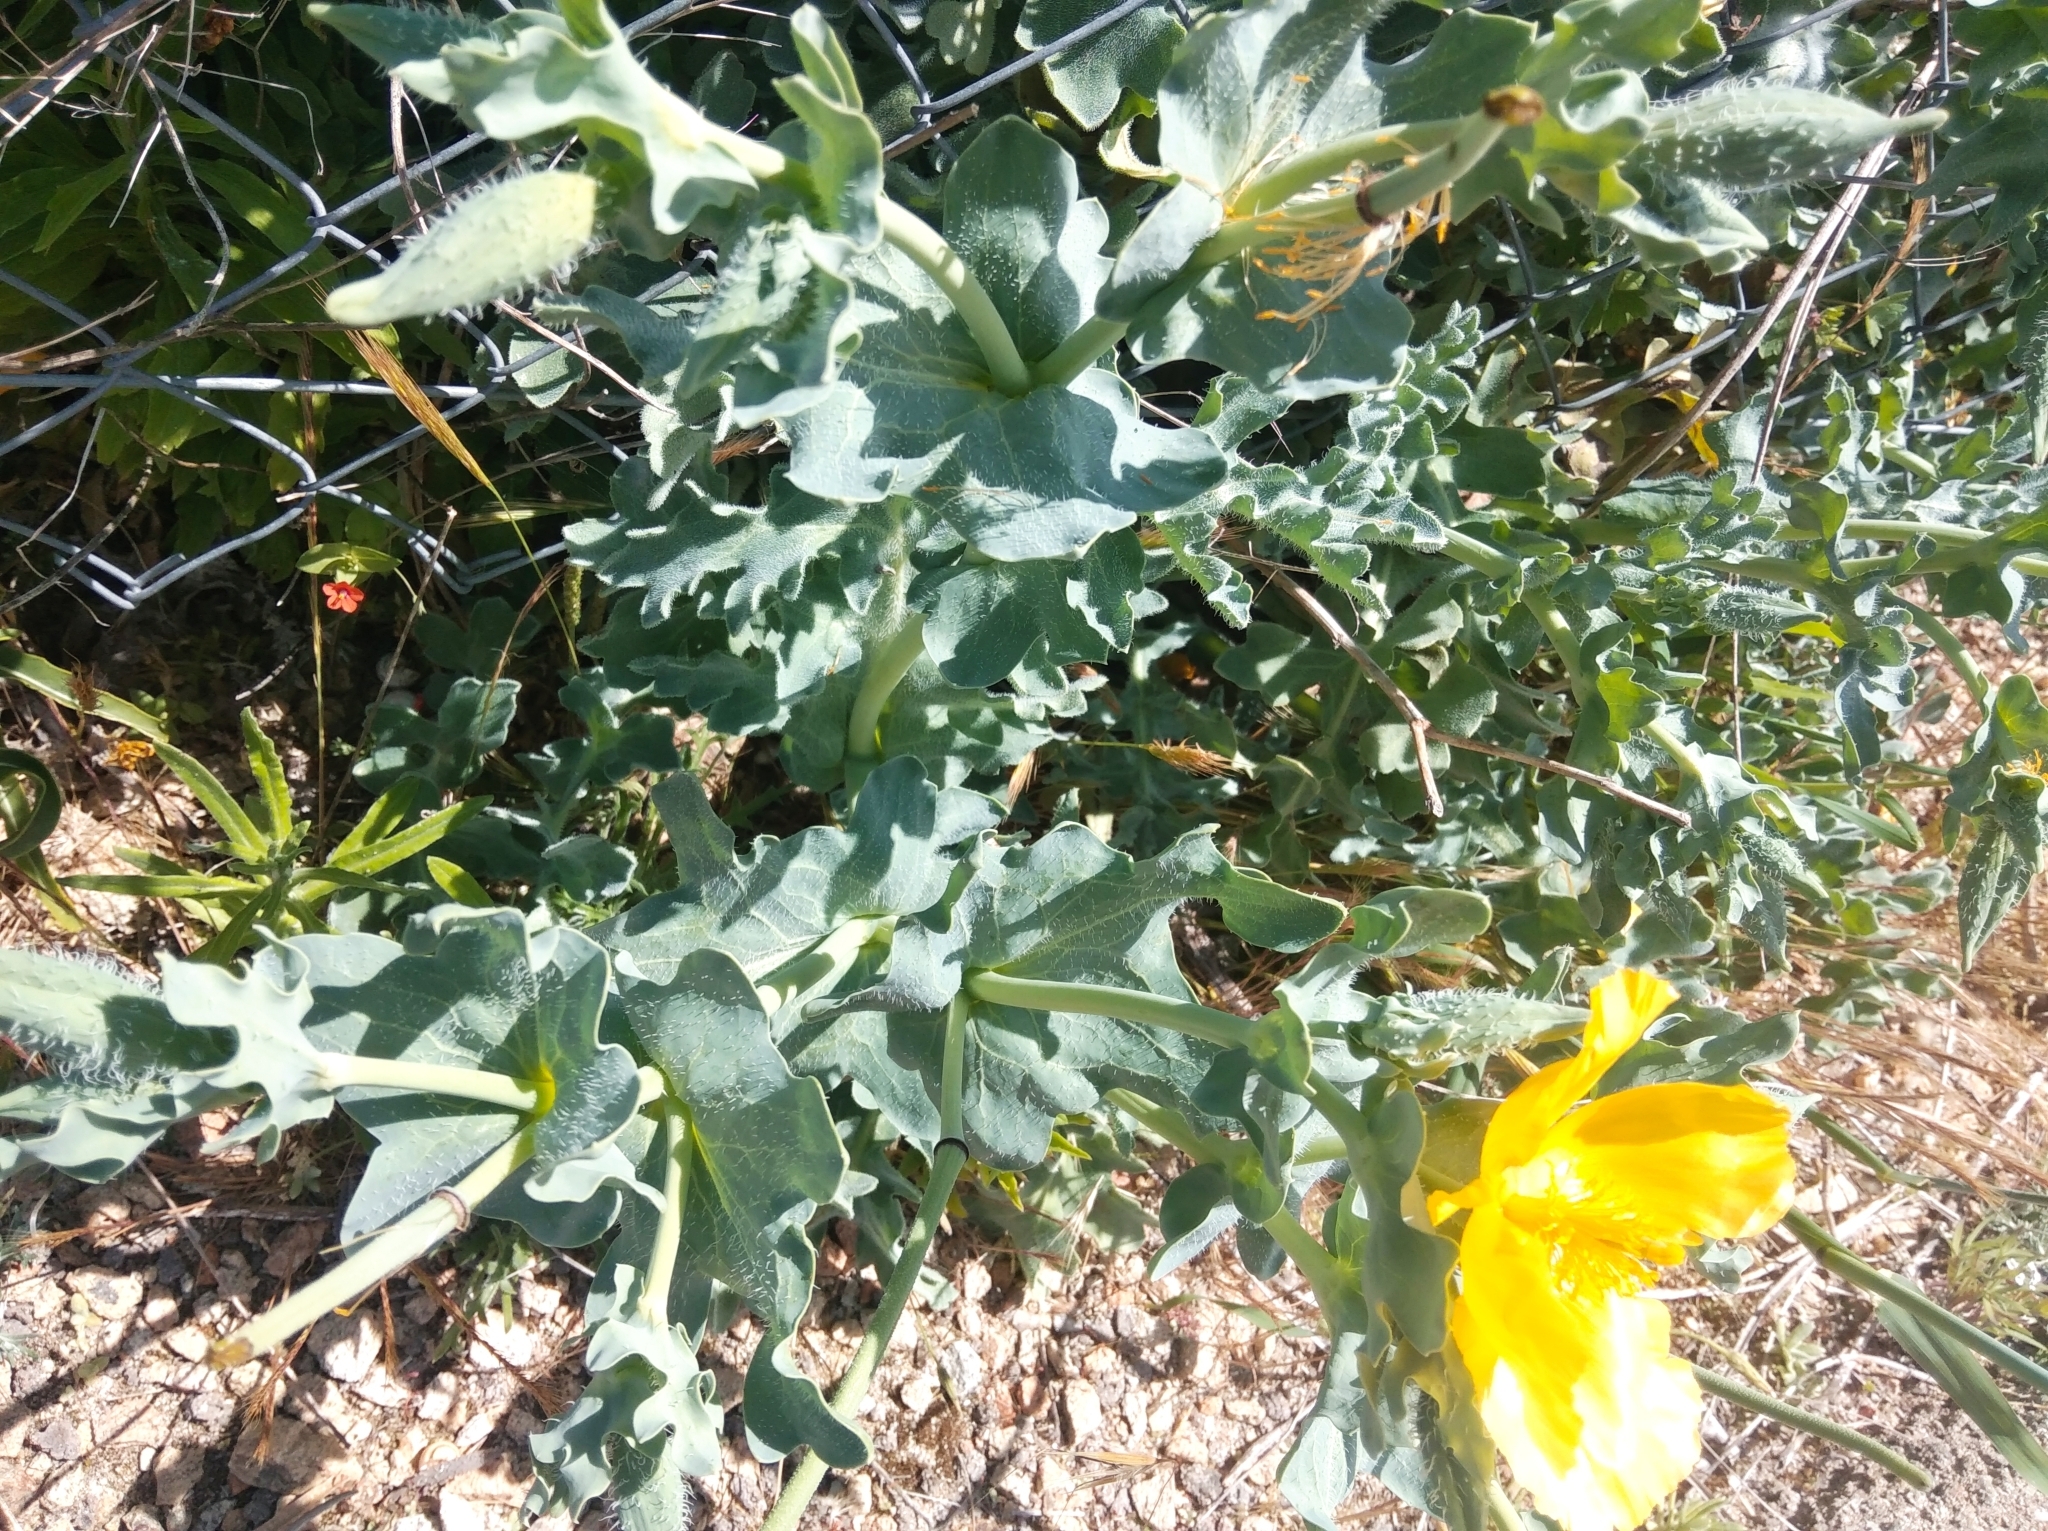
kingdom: Plantae
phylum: Tracheophyta
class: Magnoliopsida
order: Ranunculales
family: Papaveraceae
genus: Glaucium
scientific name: Glaucium flavum
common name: Yellow horned-poppy
